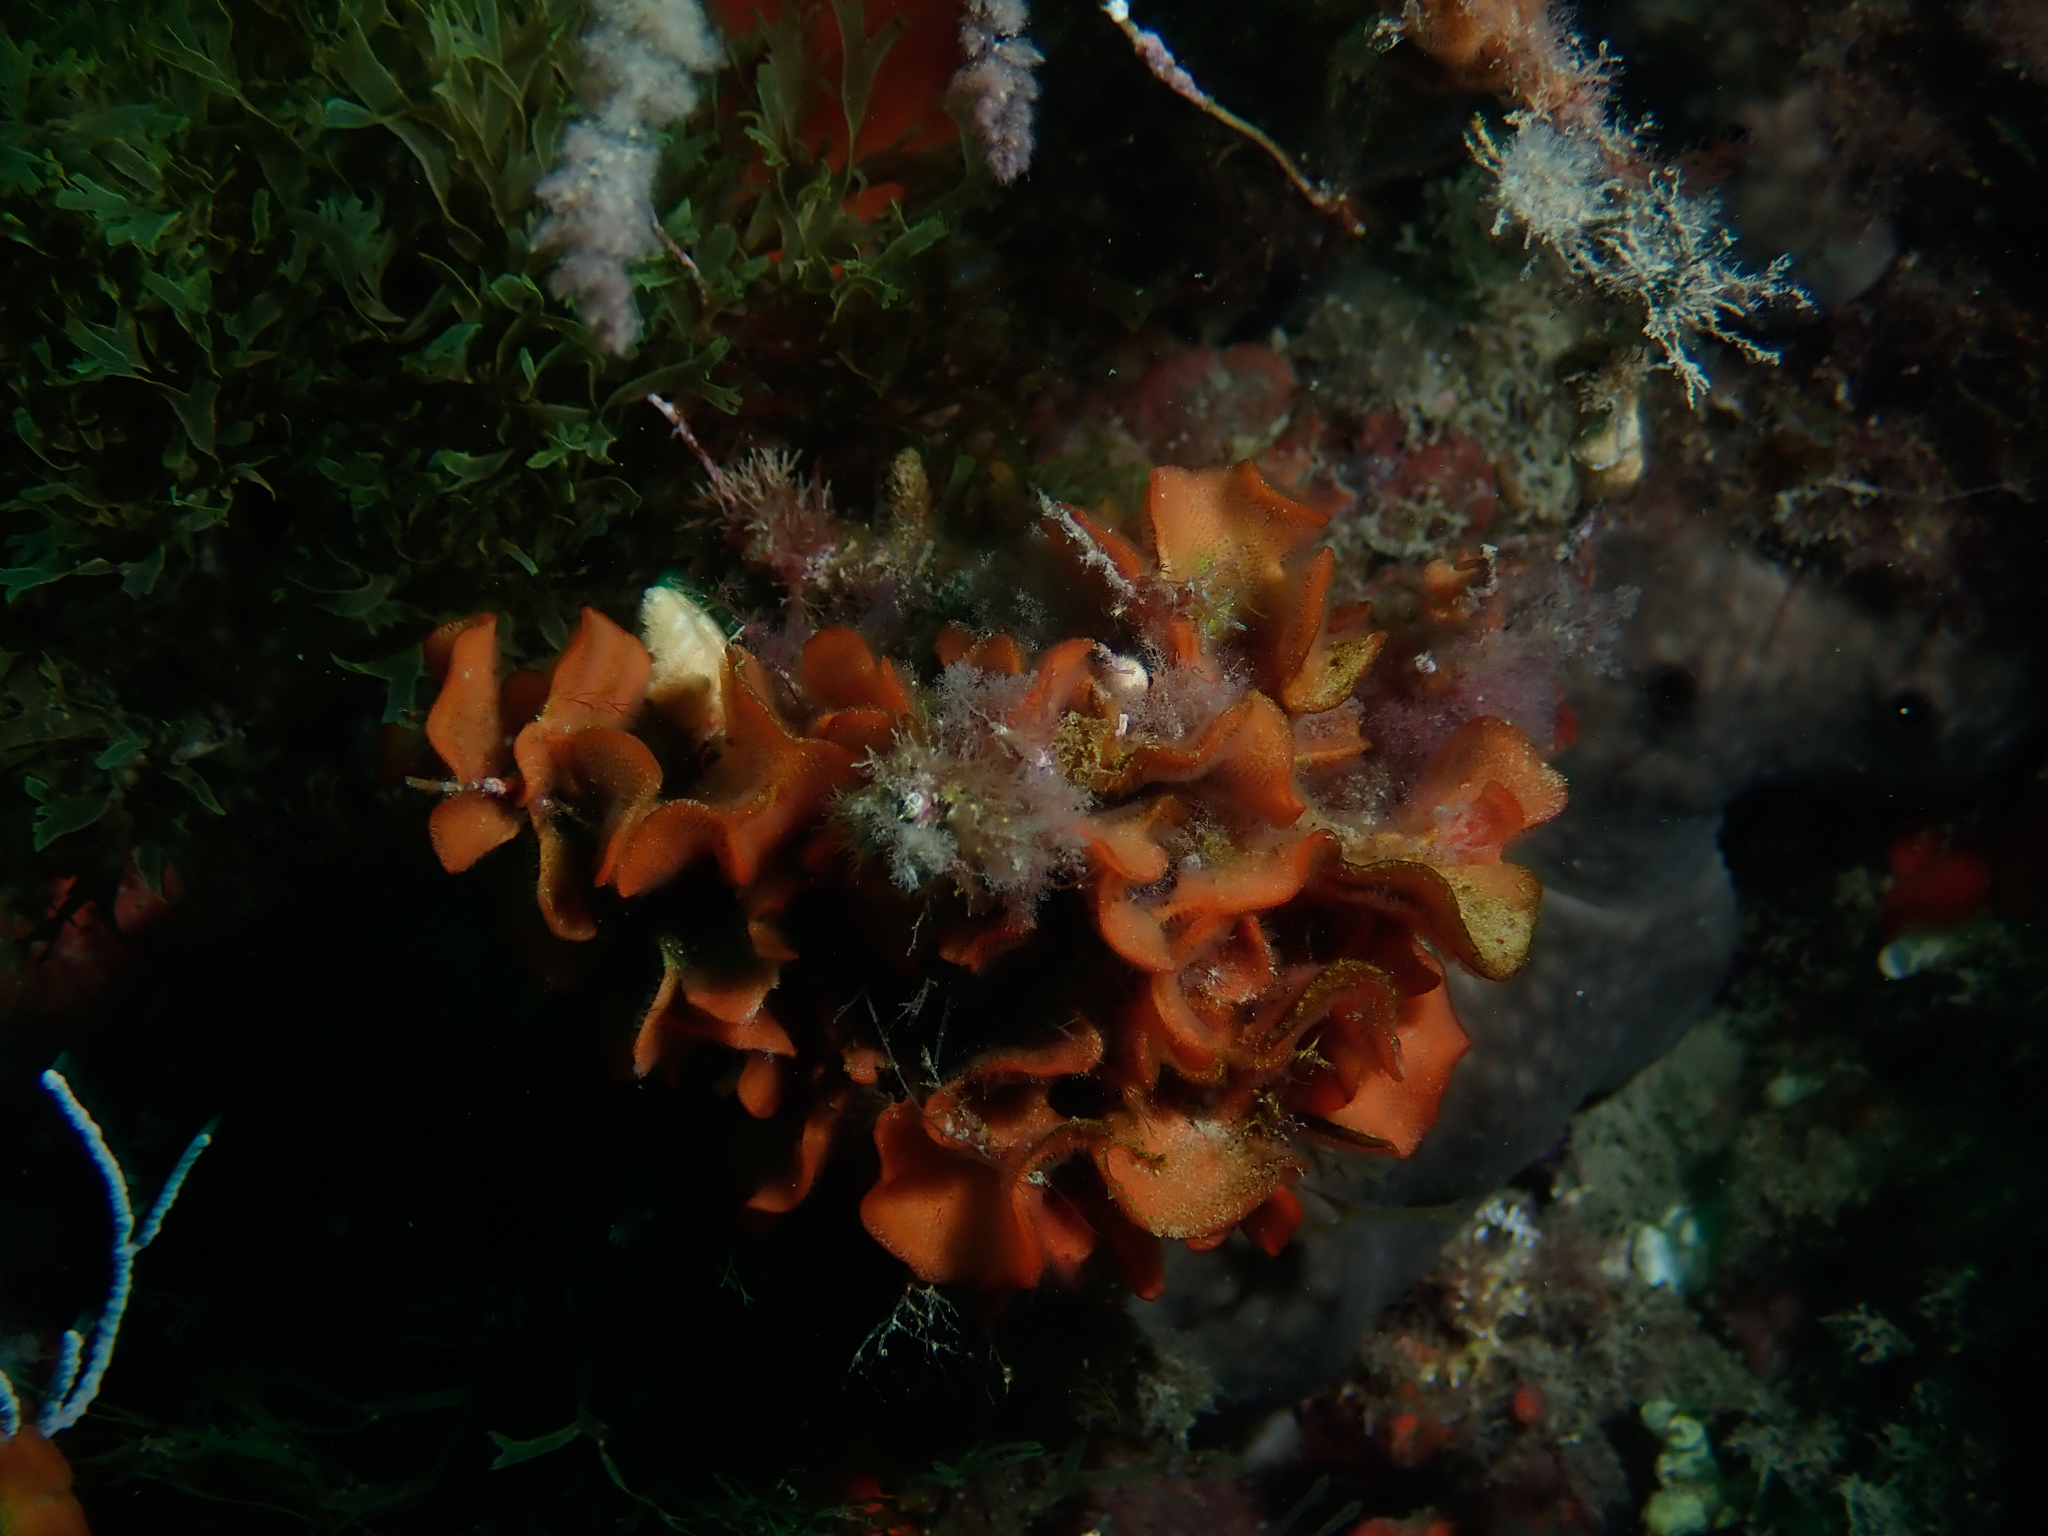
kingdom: Animalia
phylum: Bryozoa
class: Gymnolaemata
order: Cheilostomatida
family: Bitectiporidae
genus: Pentapora
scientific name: Pentapora fascialis
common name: Ross coral
